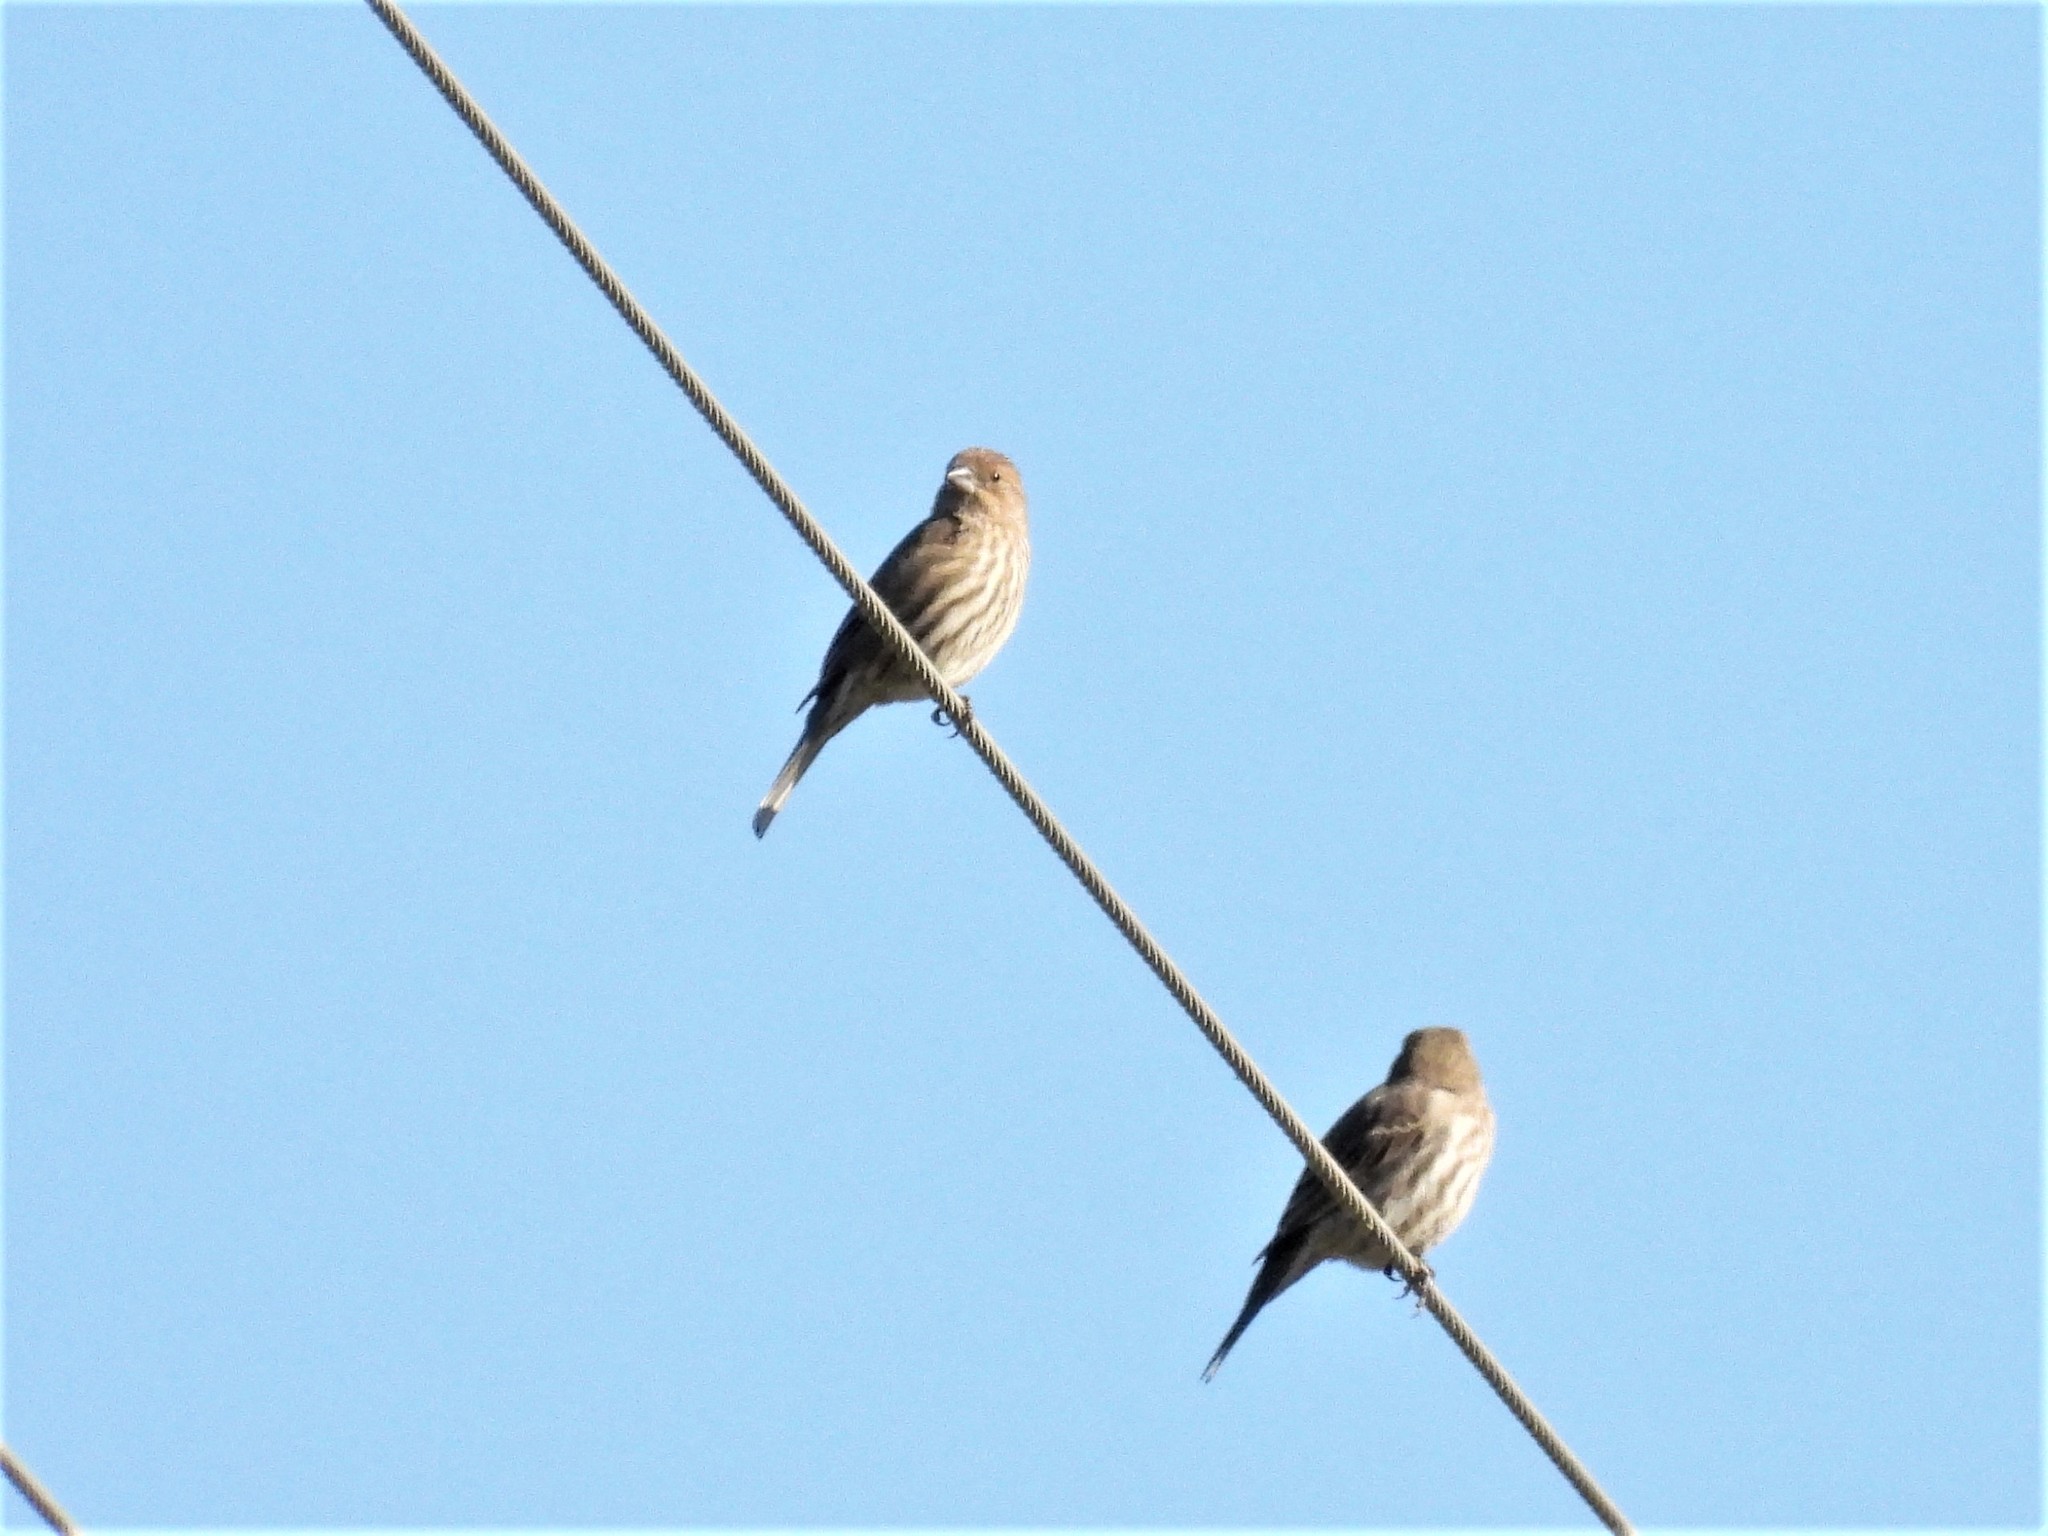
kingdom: Animalia
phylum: Chordata
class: Aves
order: Passeriformes
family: Fringillidae
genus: Haemorhous
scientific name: Haemorhous mexicanus
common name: House finch
